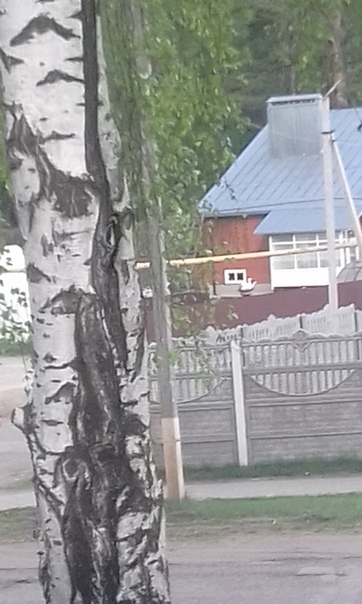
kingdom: Animalia
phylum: Chordata
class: Aves
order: Piciformes
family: Picidae
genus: Dendrocopos
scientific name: Dendrocopos major
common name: Great spotted woodpecker
